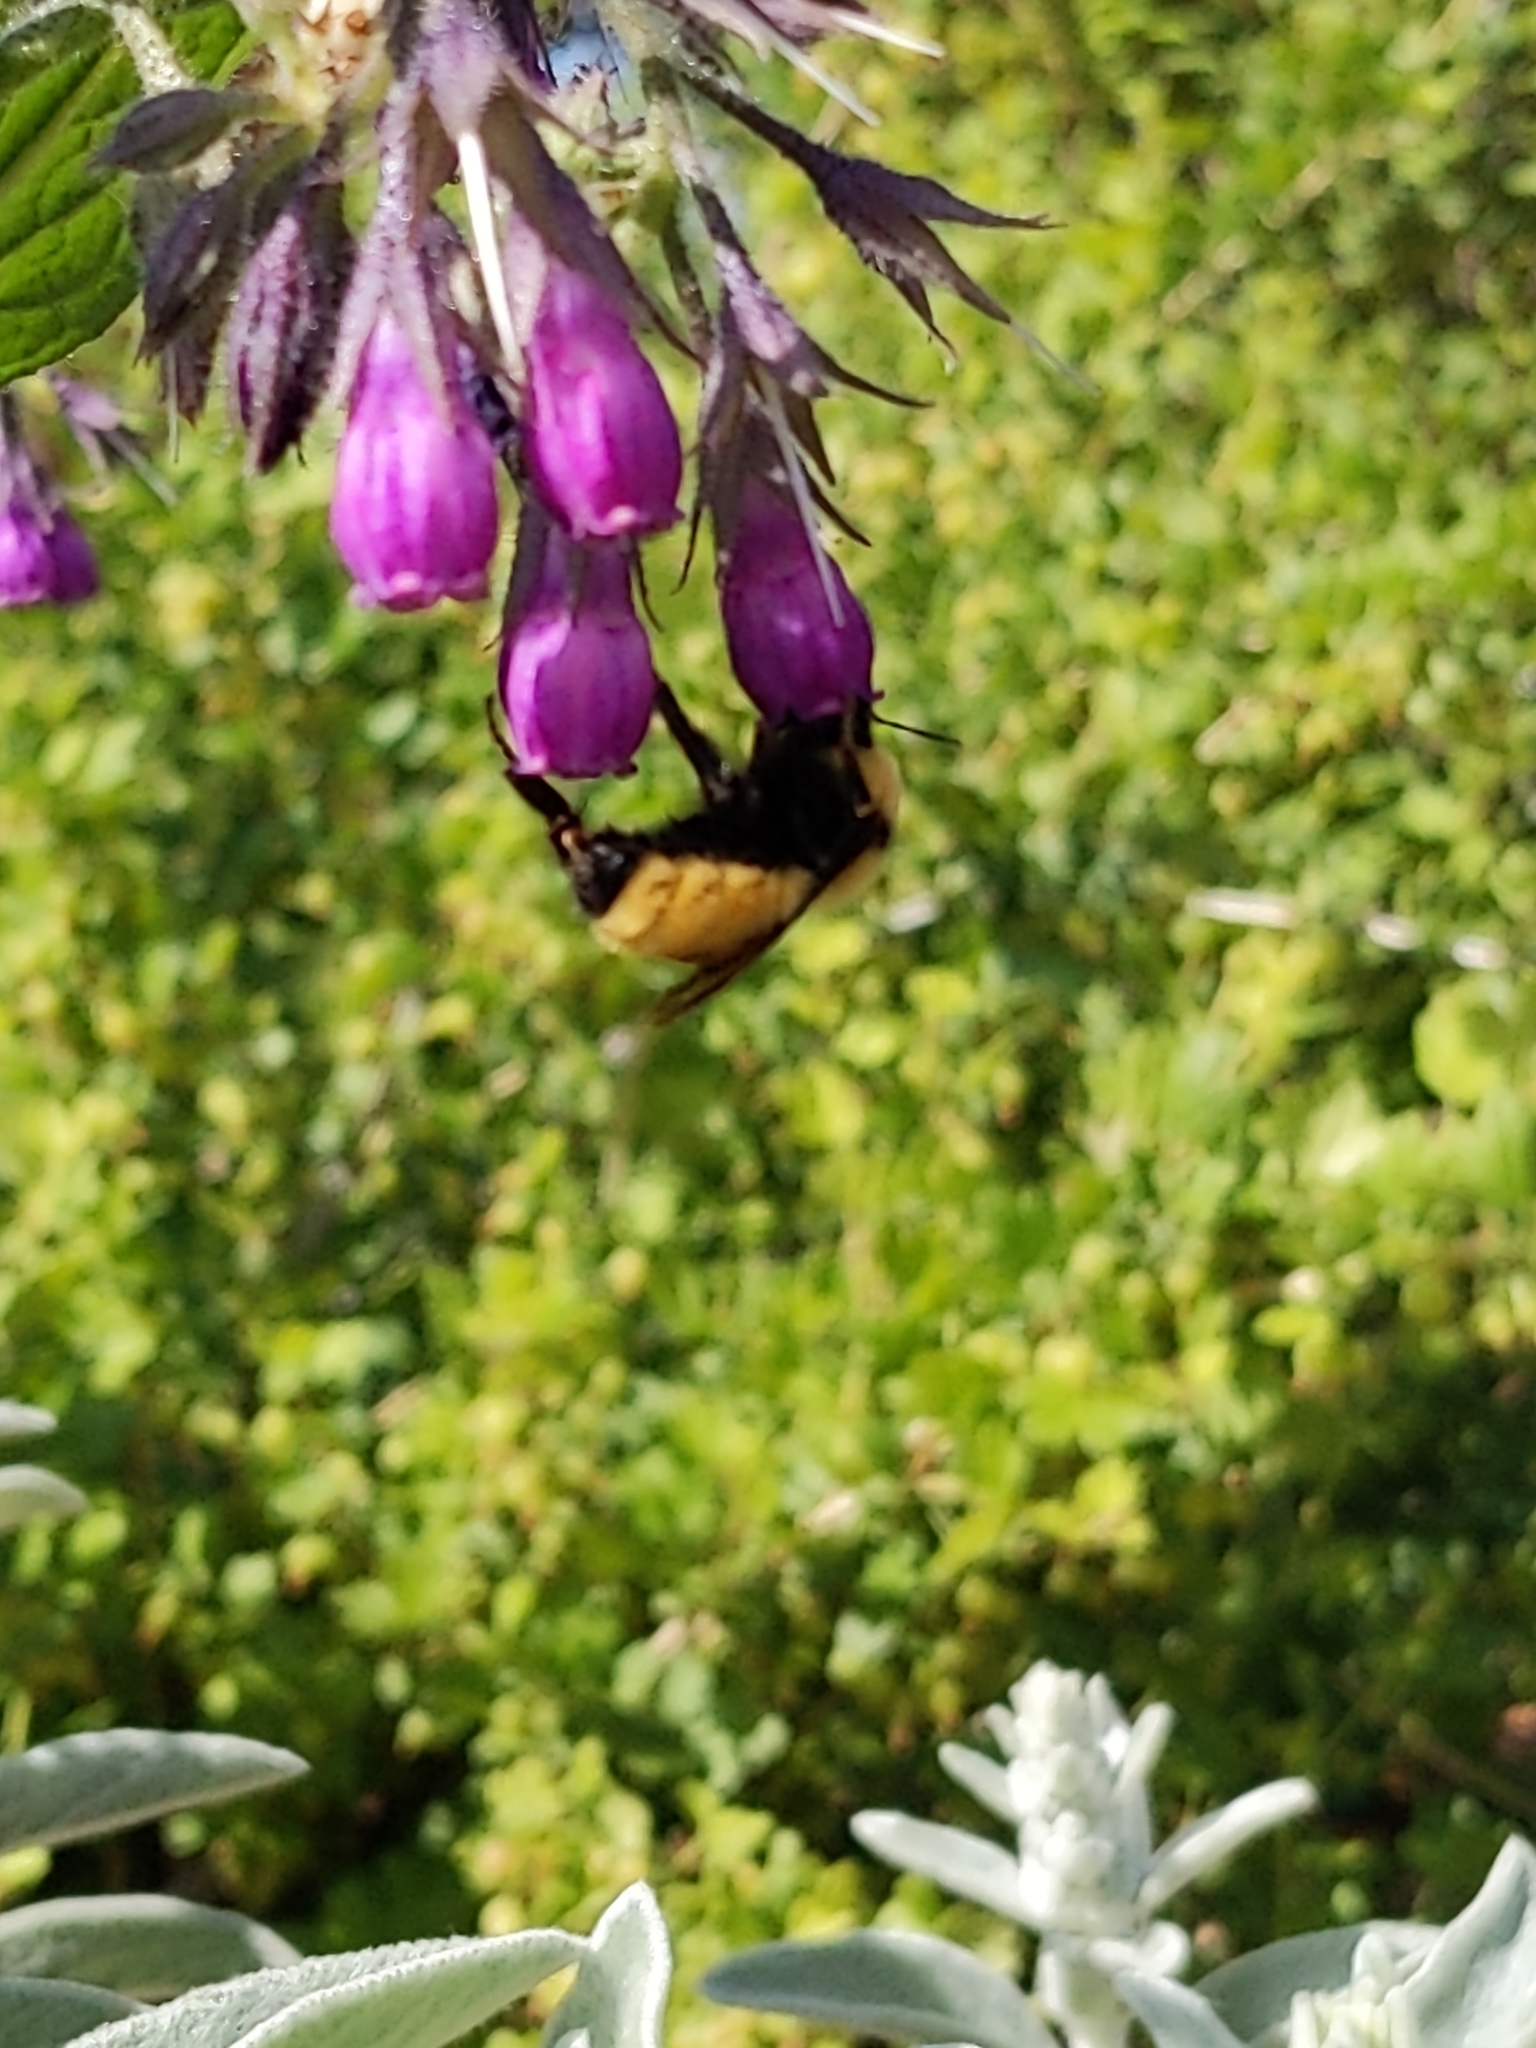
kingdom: Animalia
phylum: Arthropoda
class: Insecta
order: Hymenoptera
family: Apidae
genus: Bombus
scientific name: Bombus fervidus
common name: Yellow bumble bee
